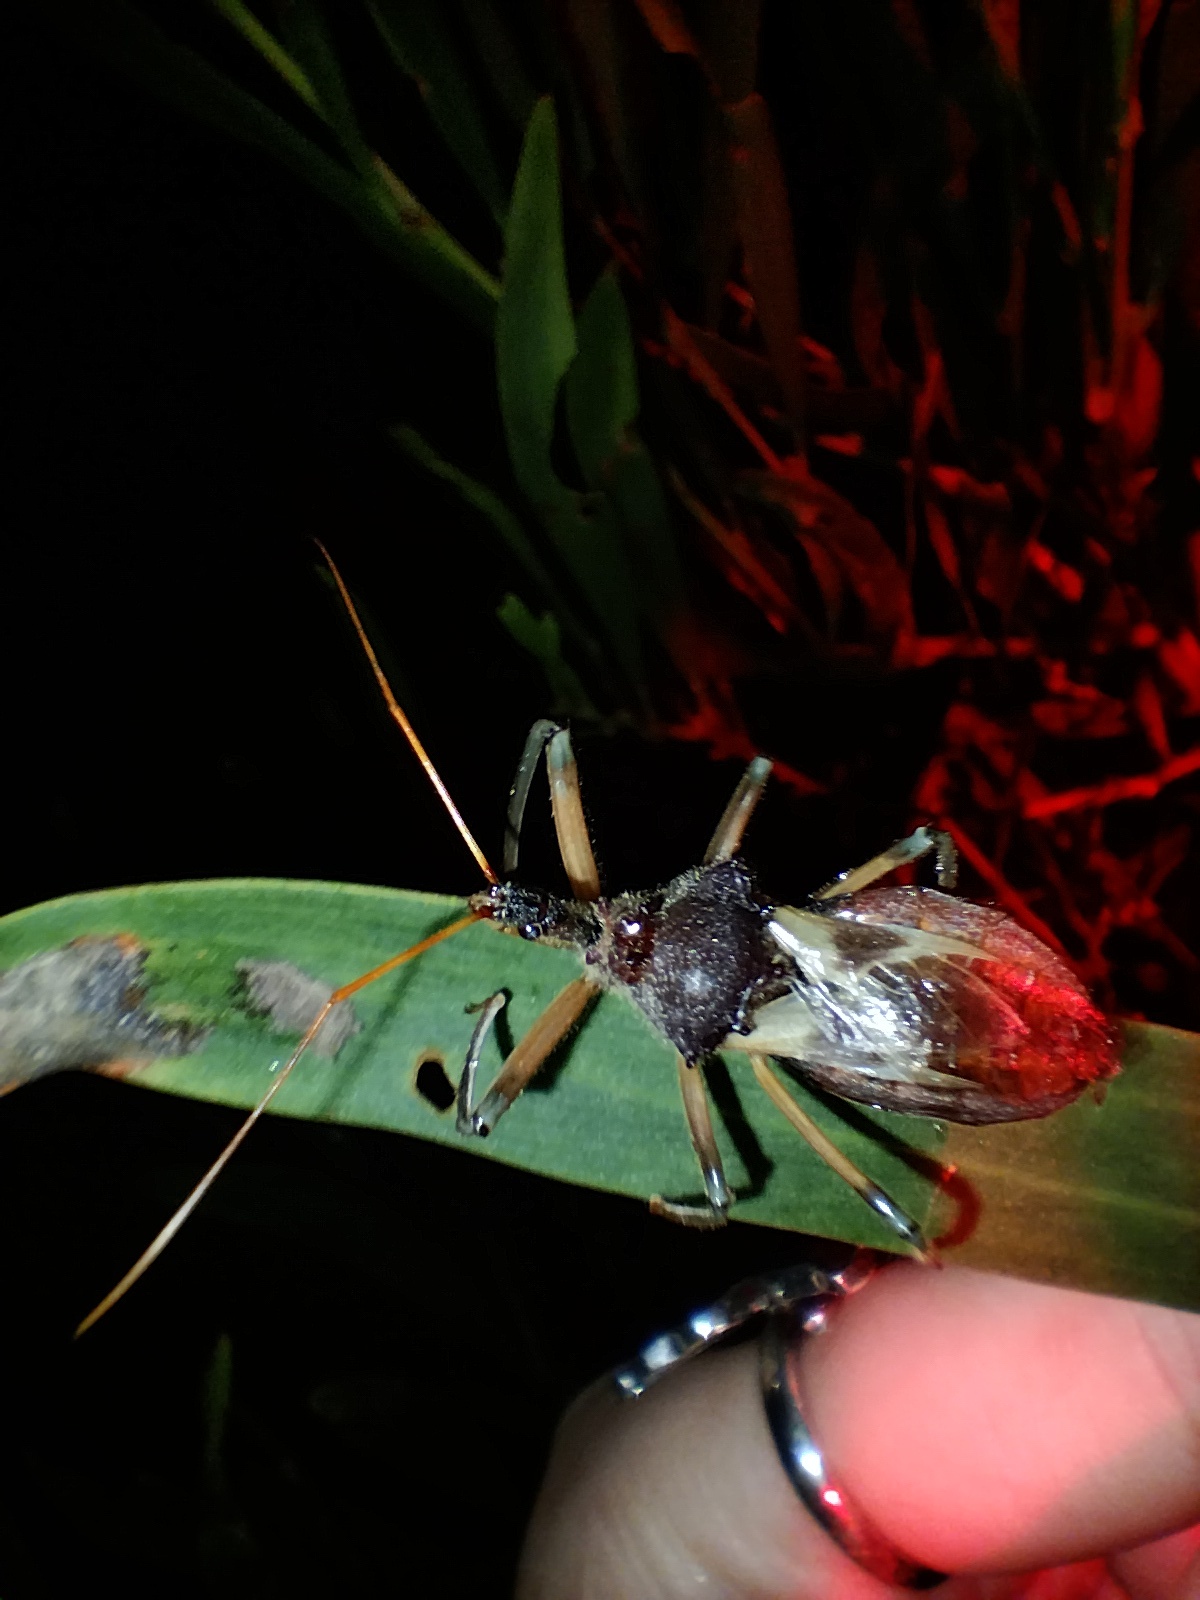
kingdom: Animalia
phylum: Arthropoda
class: Insecta
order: Hemiptera
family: Reduviidae
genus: Pristhesancus
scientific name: Pristhesancus plagipennis
